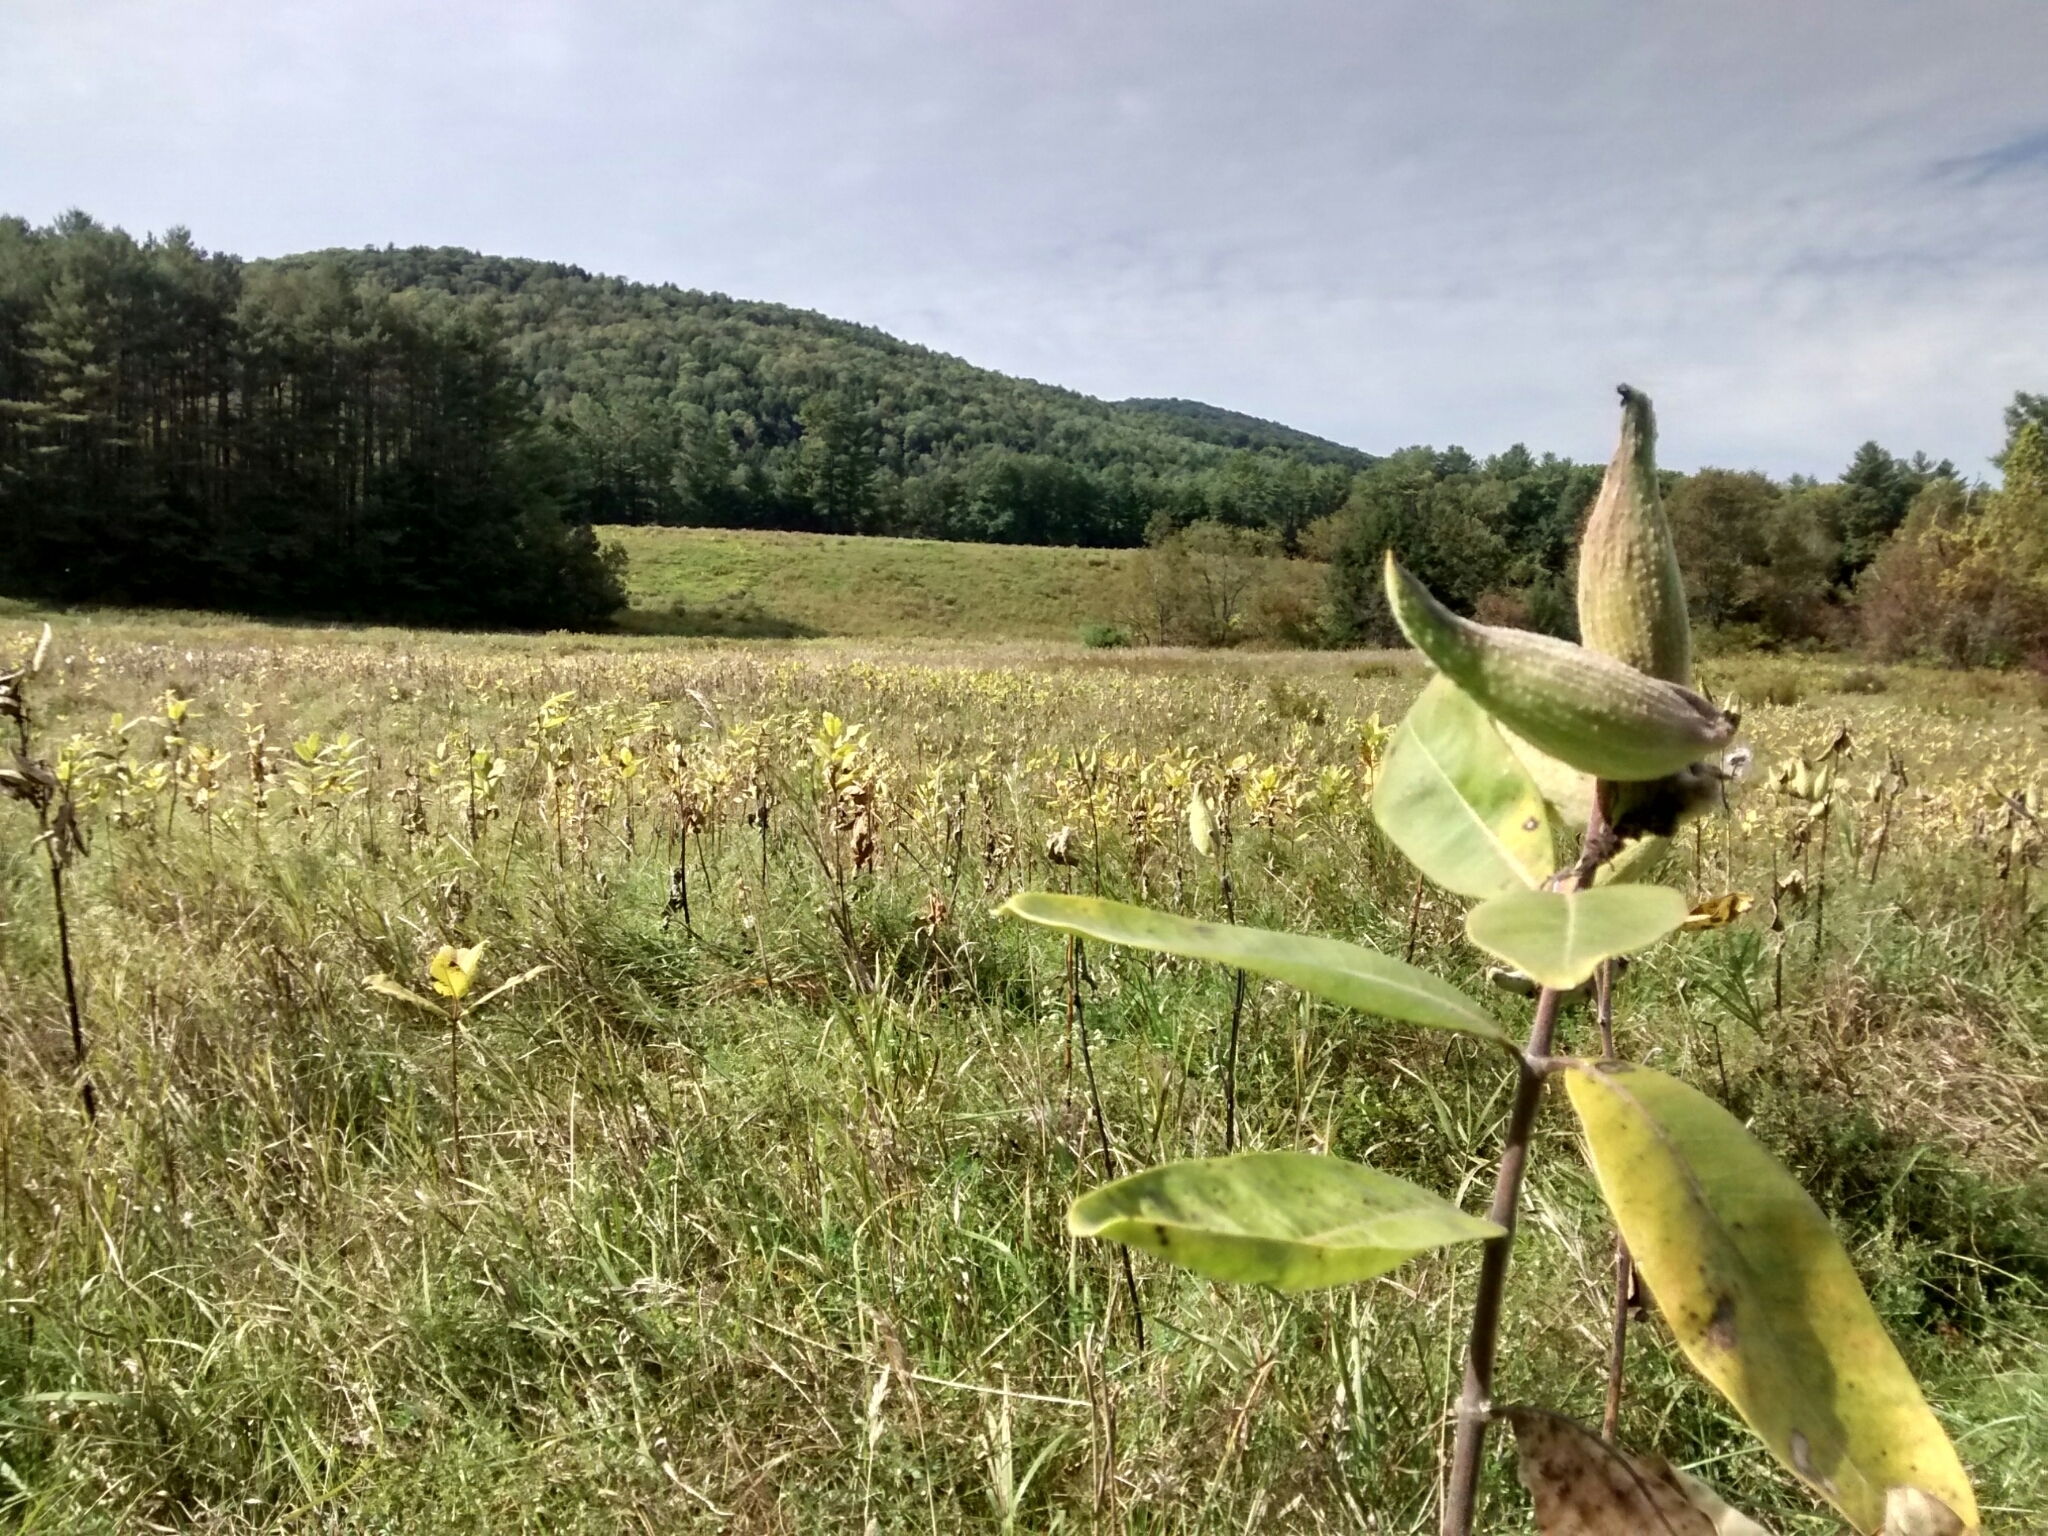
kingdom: Plantae
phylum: Tracheophyta
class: Magnoliopsida
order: Gentianales
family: Apocynaceae
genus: Asclepias
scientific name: Asclepias syriaca
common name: Common milkweed
